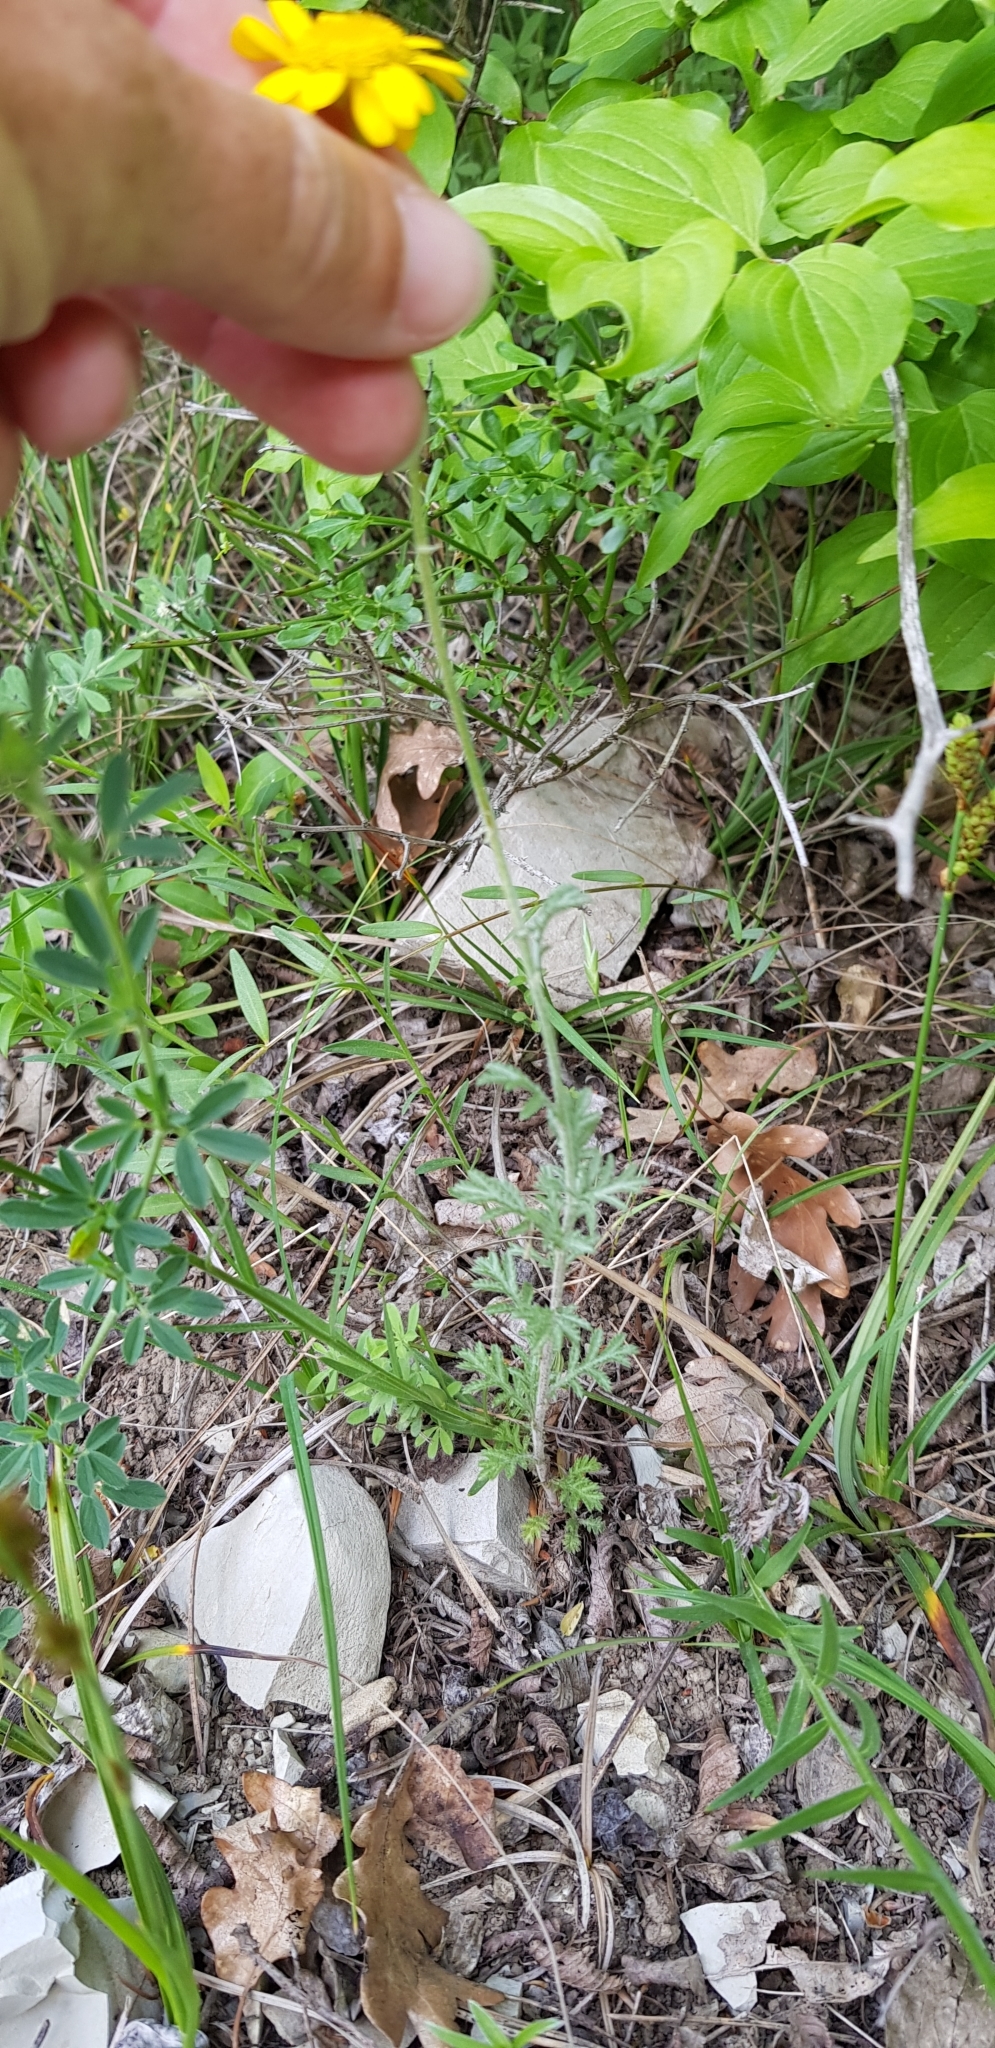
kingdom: Plantae
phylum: Tracheophyta
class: Magnoliopsida
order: Asterales
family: Asteraceae
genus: Cota
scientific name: Cota tinctoria
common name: Golden chamomile
